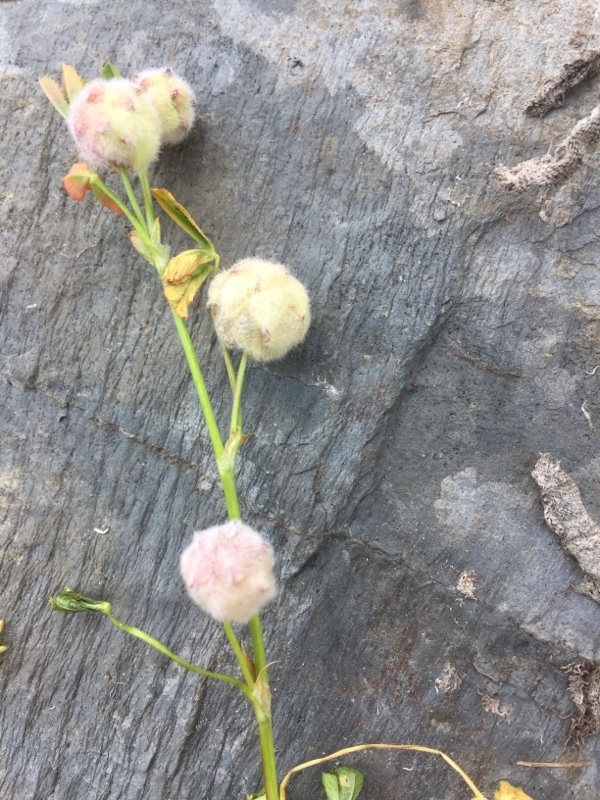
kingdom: Plantae
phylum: Tracheophyta
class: Magnoliopsida
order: Fabales
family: Fabaceae
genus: Trifolium
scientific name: Trifolium tomentosum
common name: Woolly clover
